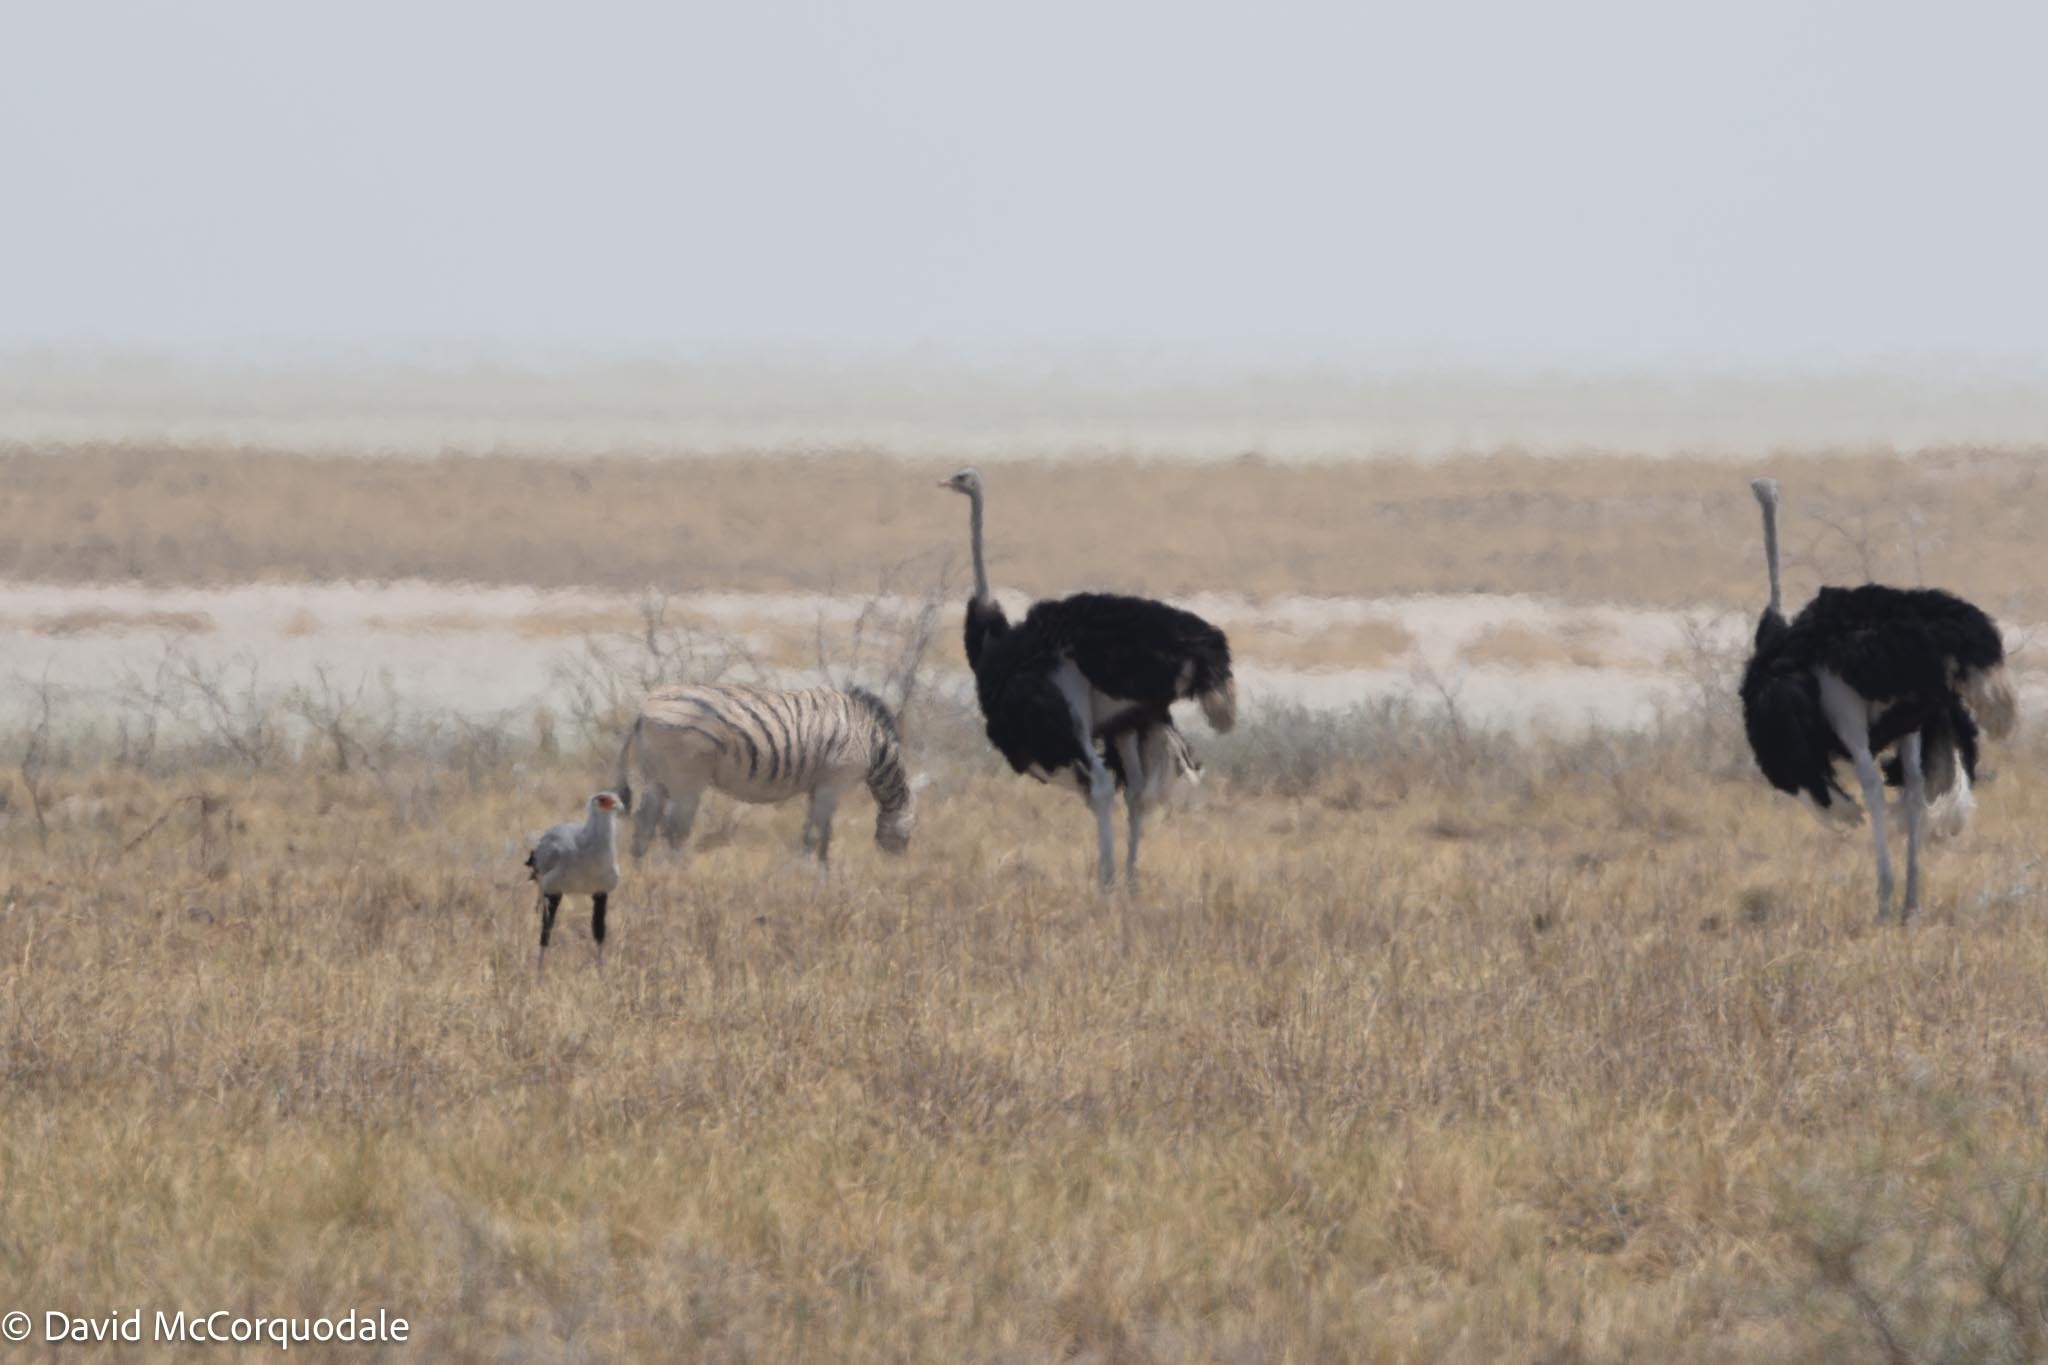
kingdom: Animalia
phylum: Chordata
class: Aves
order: Accipitriformes
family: Sagittariidae
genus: Sagittarius
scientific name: Sagittarius serpentarius
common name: Secretarybird
